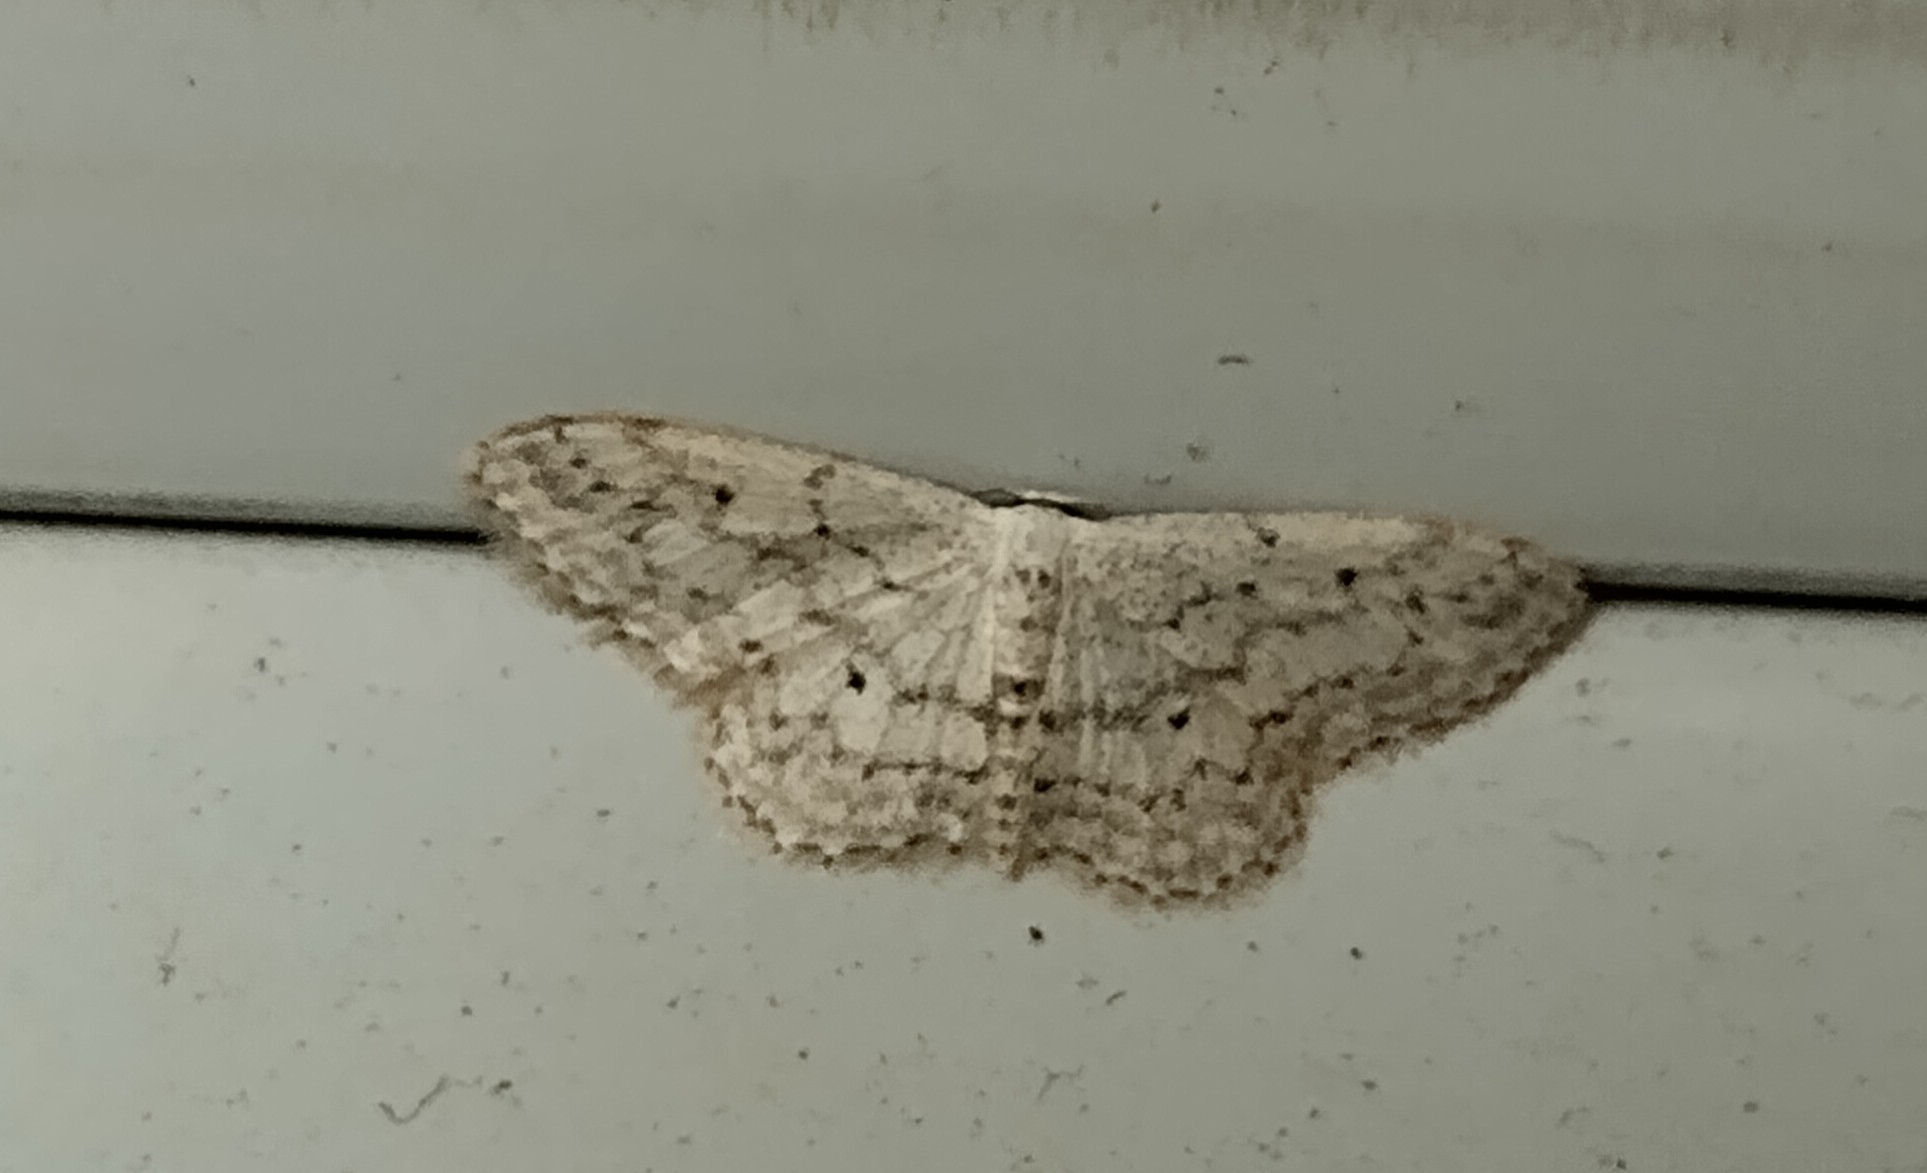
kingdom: Animalia
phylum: Arthropoda
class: Insecta
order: Lepidoptera
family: Geometridae
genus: Idaea
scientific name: Idaea seriata
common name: Small dusty wave
